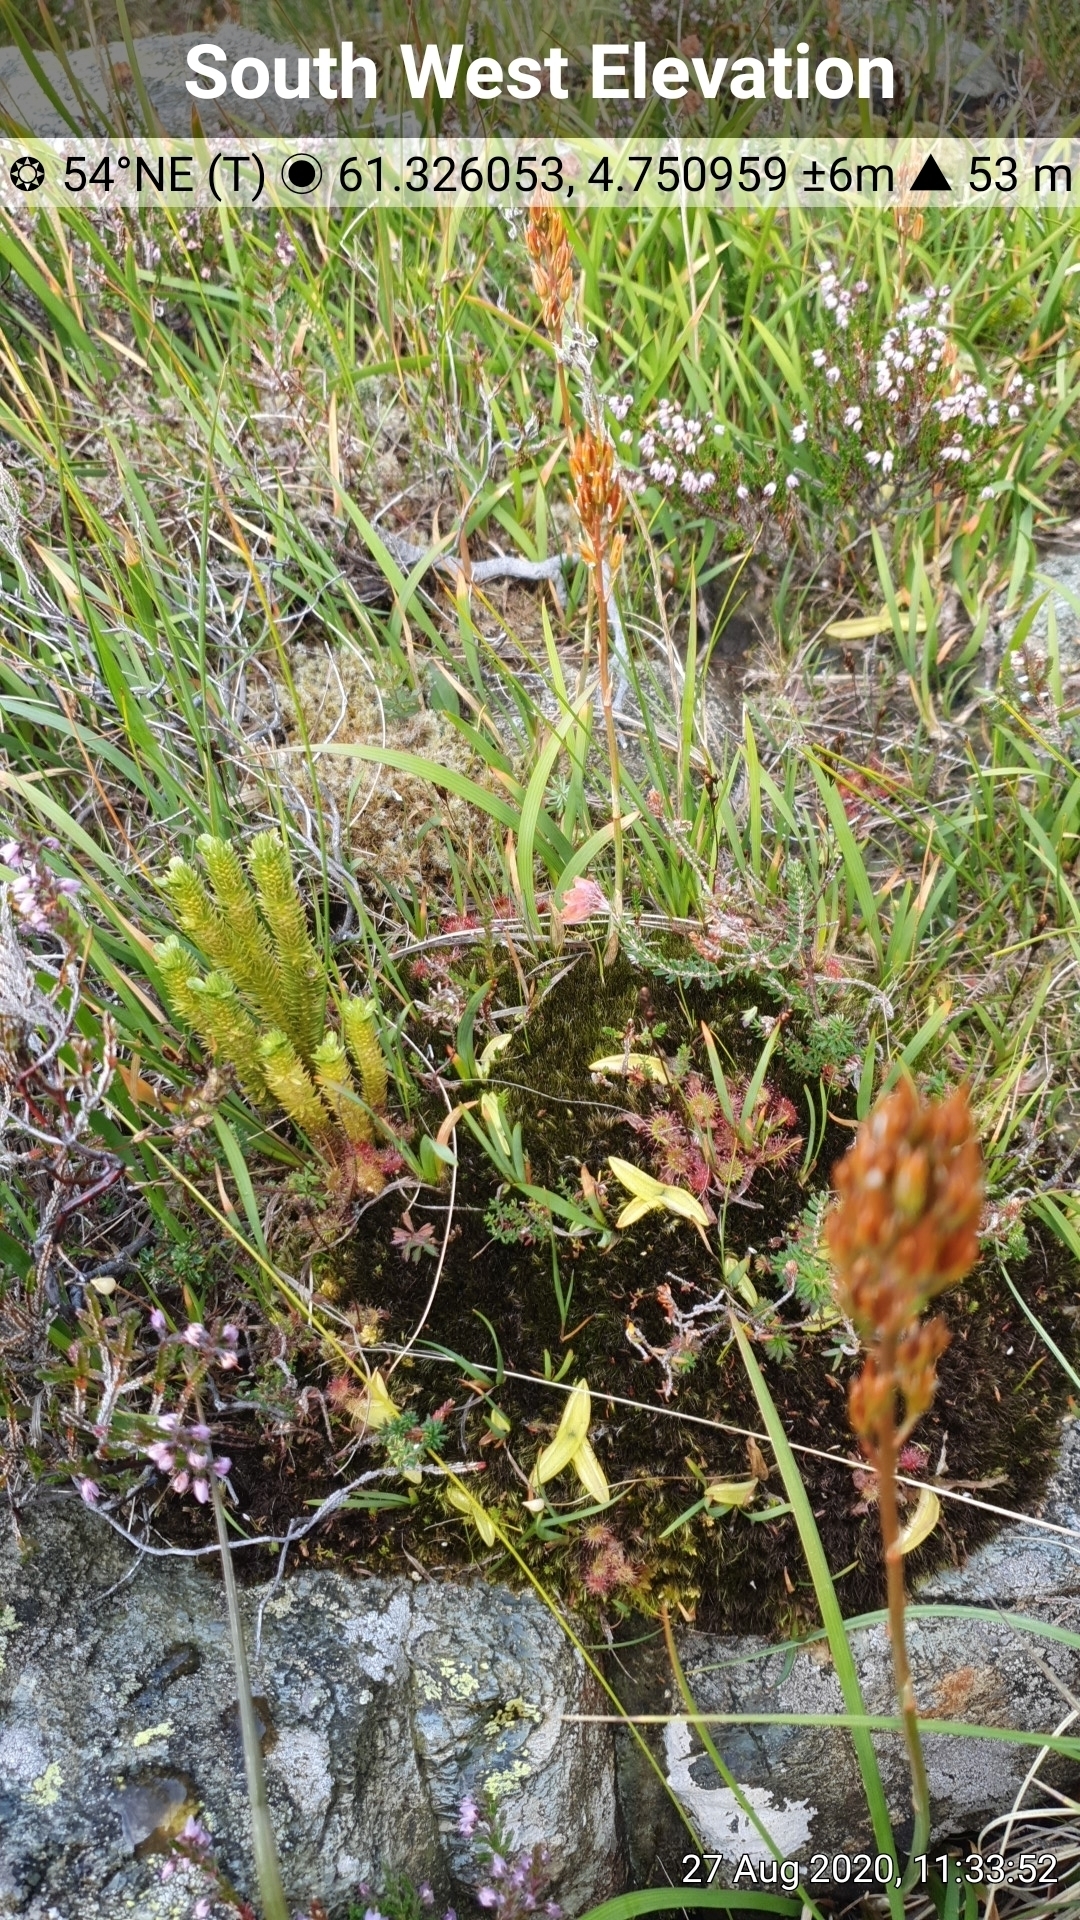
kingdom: Plantae
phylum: Tracheophyta
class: Lycopodiopsida
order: Lycopodiales
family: Lycopodiaceae
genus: Huperzia
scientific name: Huperzia selago
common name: Northern firmoss
